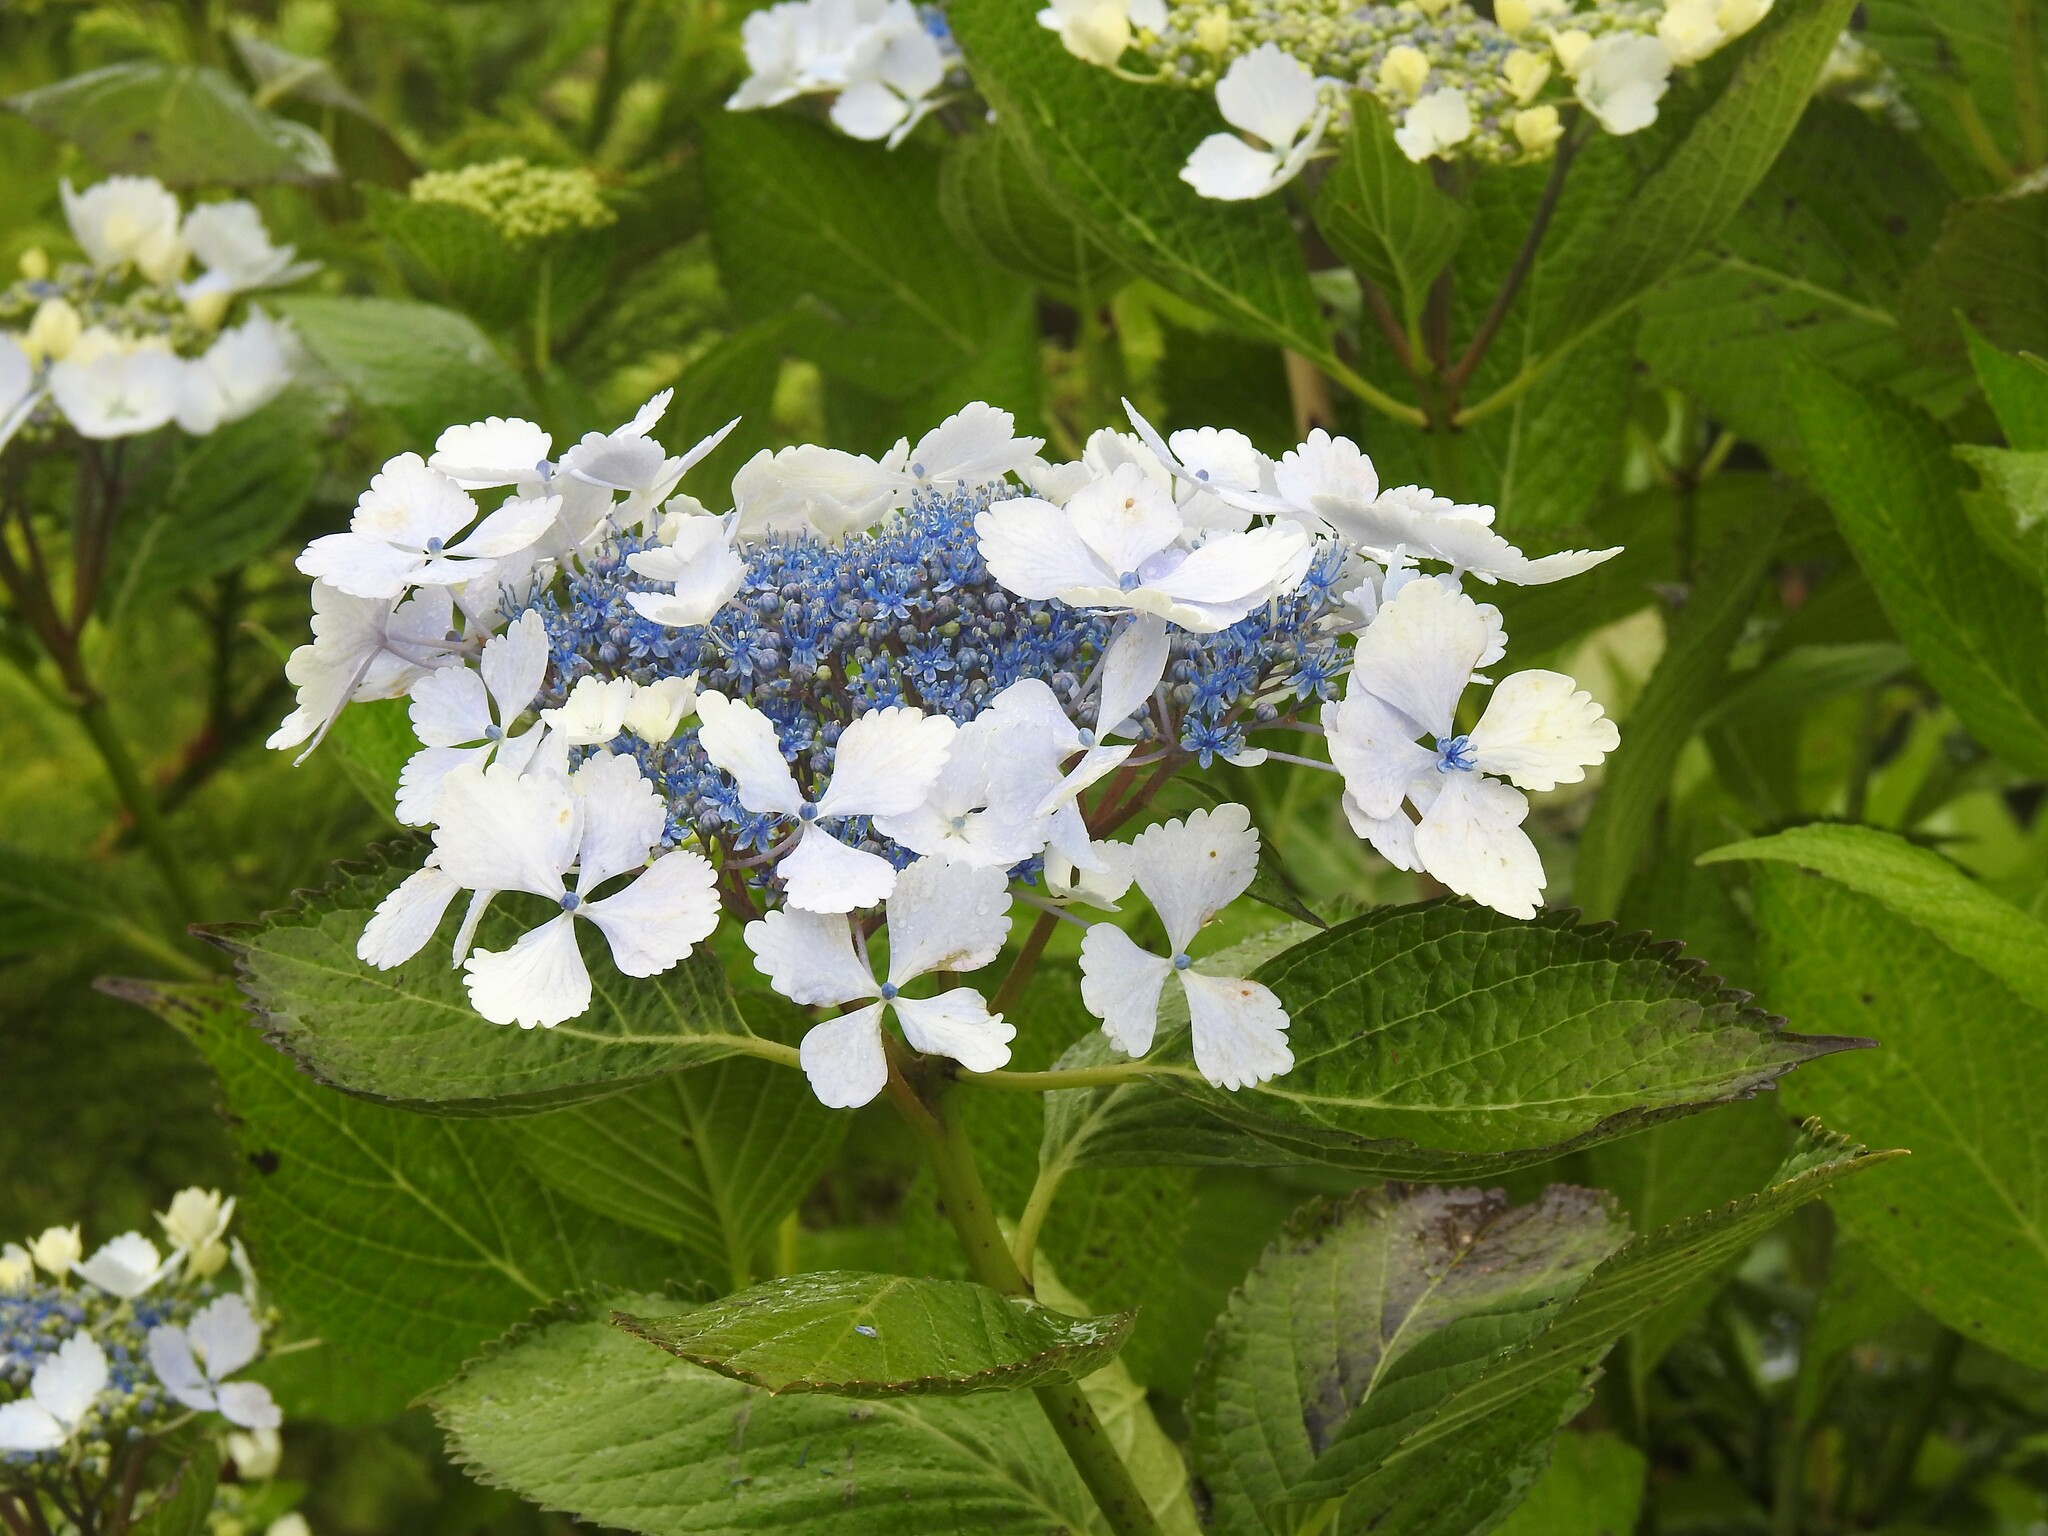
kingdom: Plantae
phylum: Tracheophyta
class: Magnoliopsida
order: Cornales
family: Hydrangeaceae
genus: Hydrangea
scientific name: Hydrangea macrophylla
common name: Hydrangea
